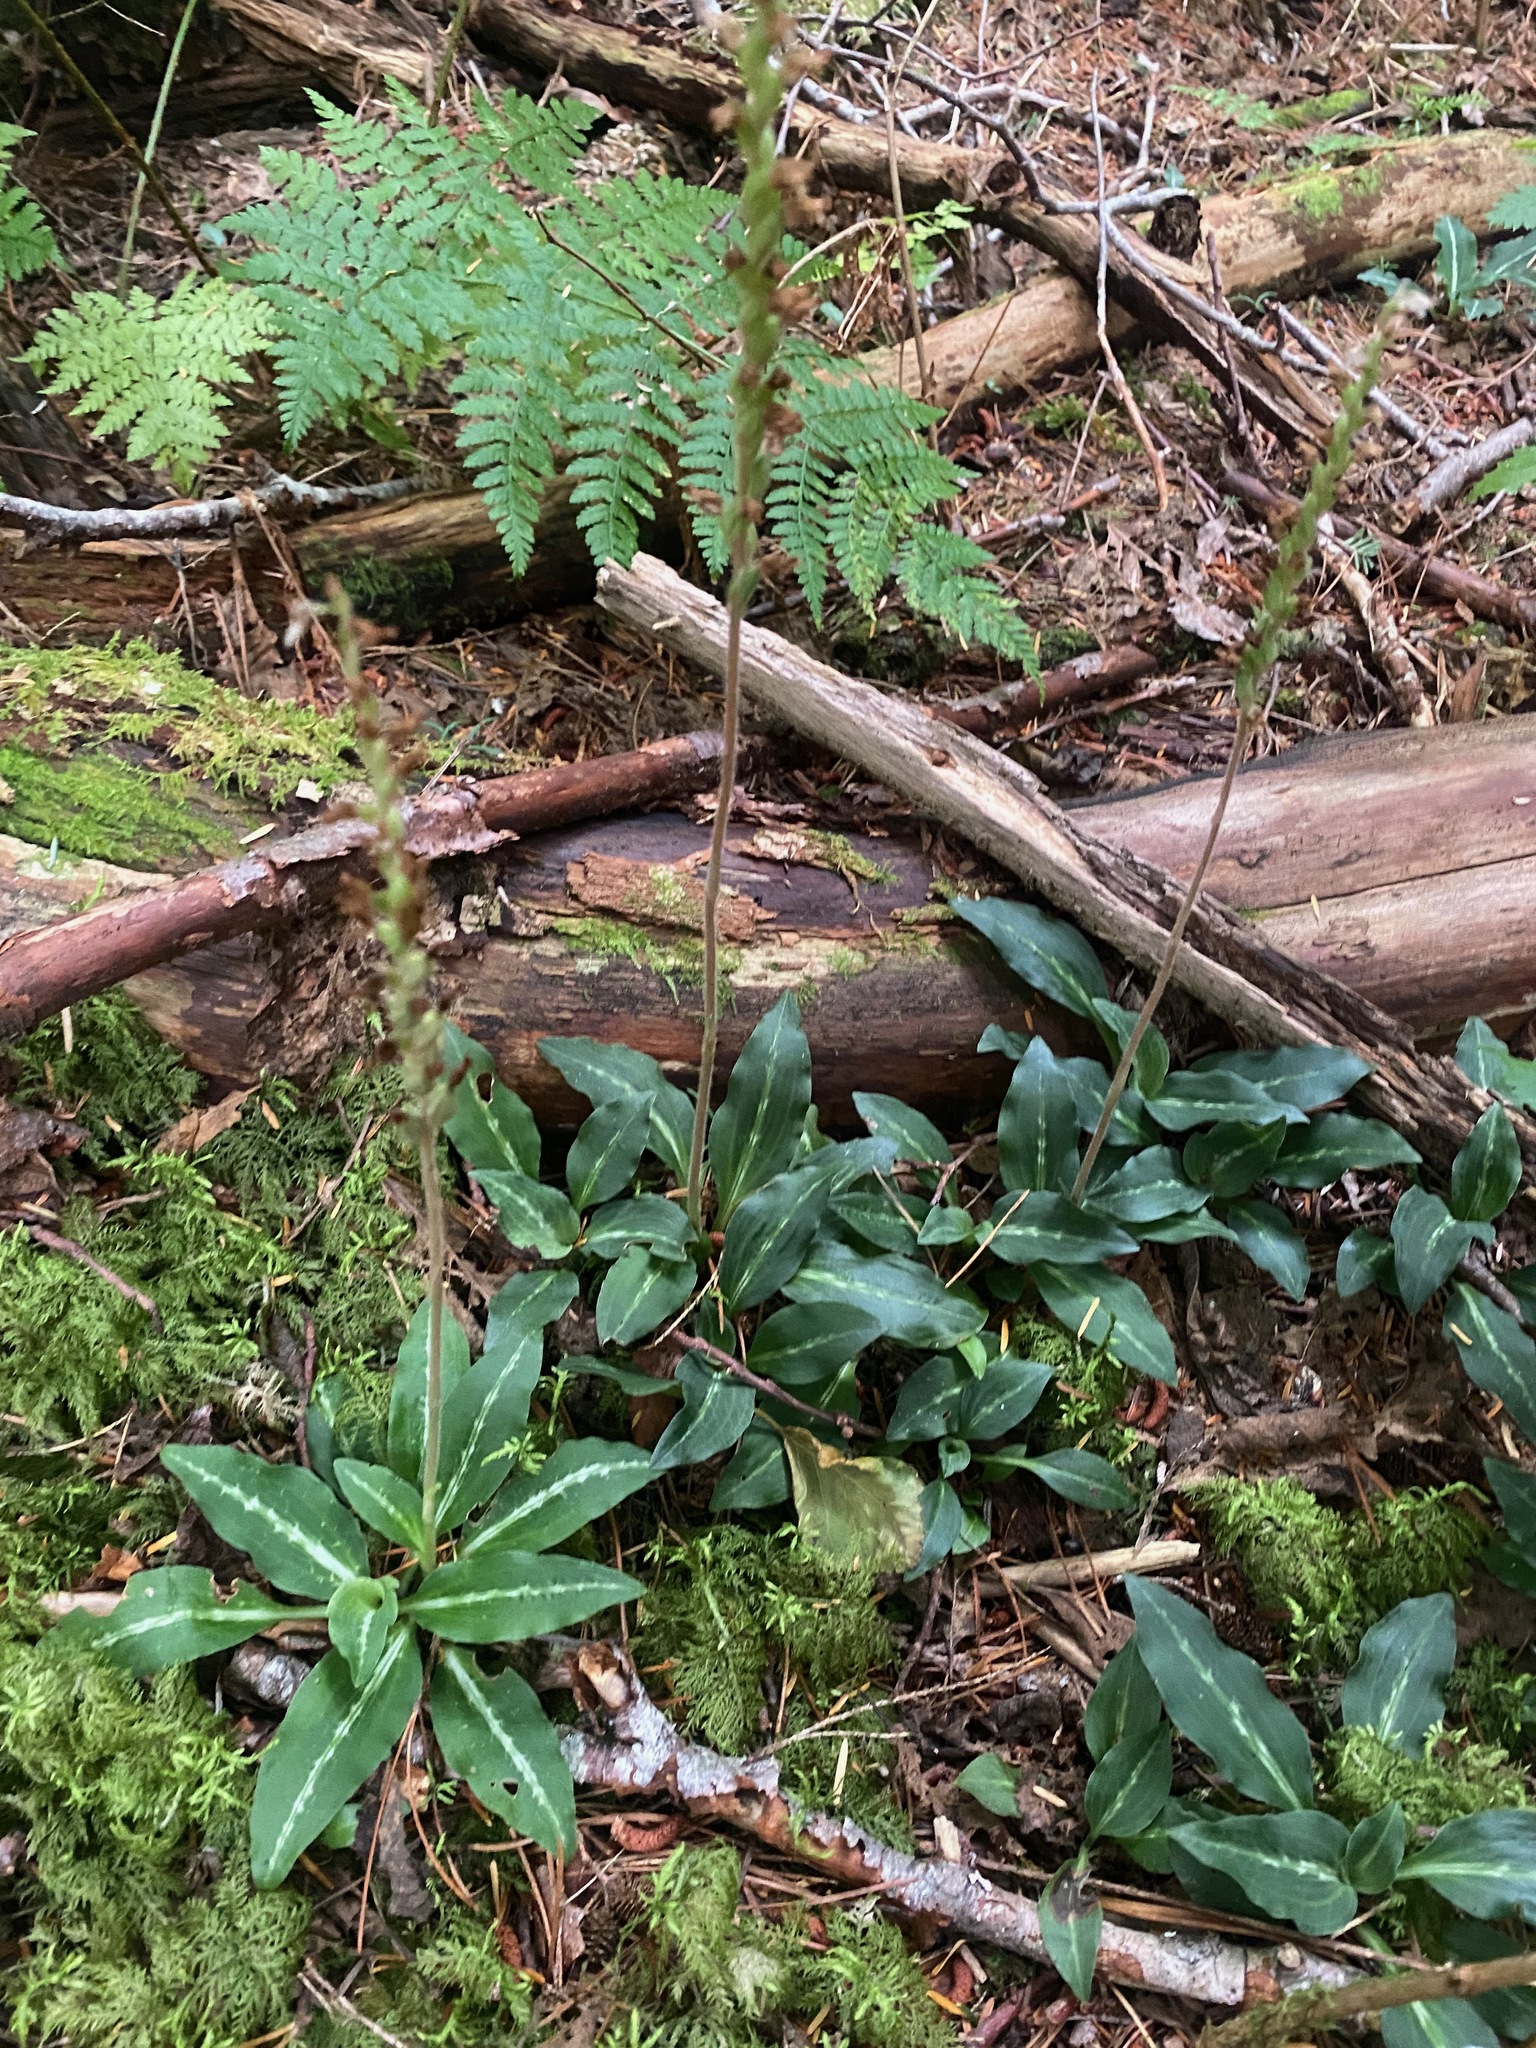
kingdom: Plantae
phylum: Tracheophyta
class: Liliopsida
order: Asparagales
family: Orchidaceae
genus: Goodyera
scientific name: Goodyera oblongifolia
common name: Giant rattlesnake-plantain
